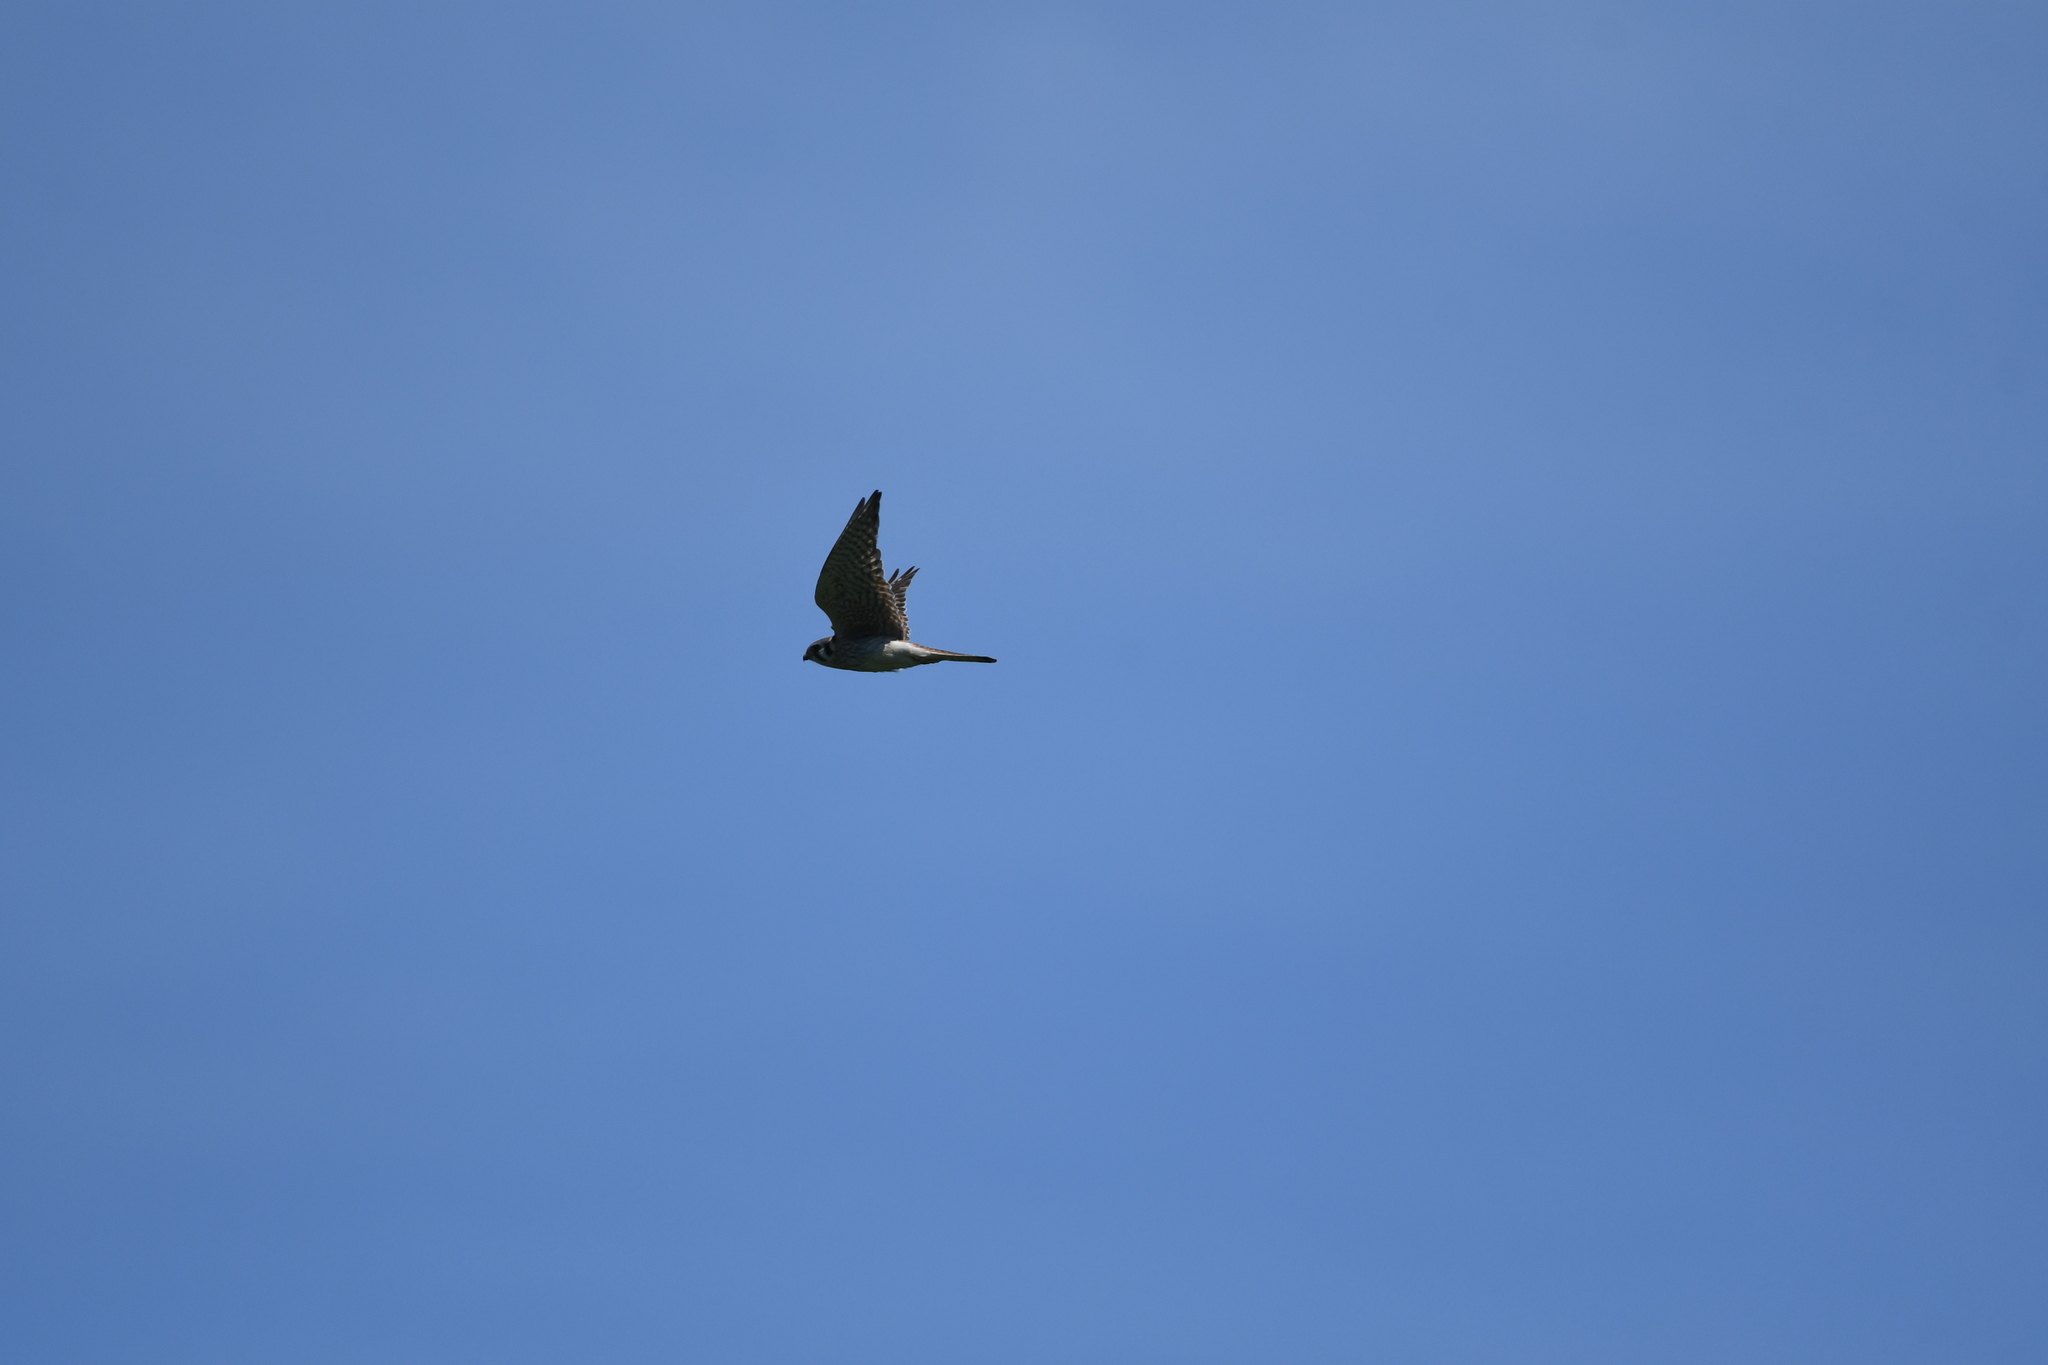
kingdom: Animalia
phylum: Chordata
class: Aves
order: Falconiformes
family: Falconidae
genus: Falco
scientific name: Falco sparverius
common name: American kestrel
